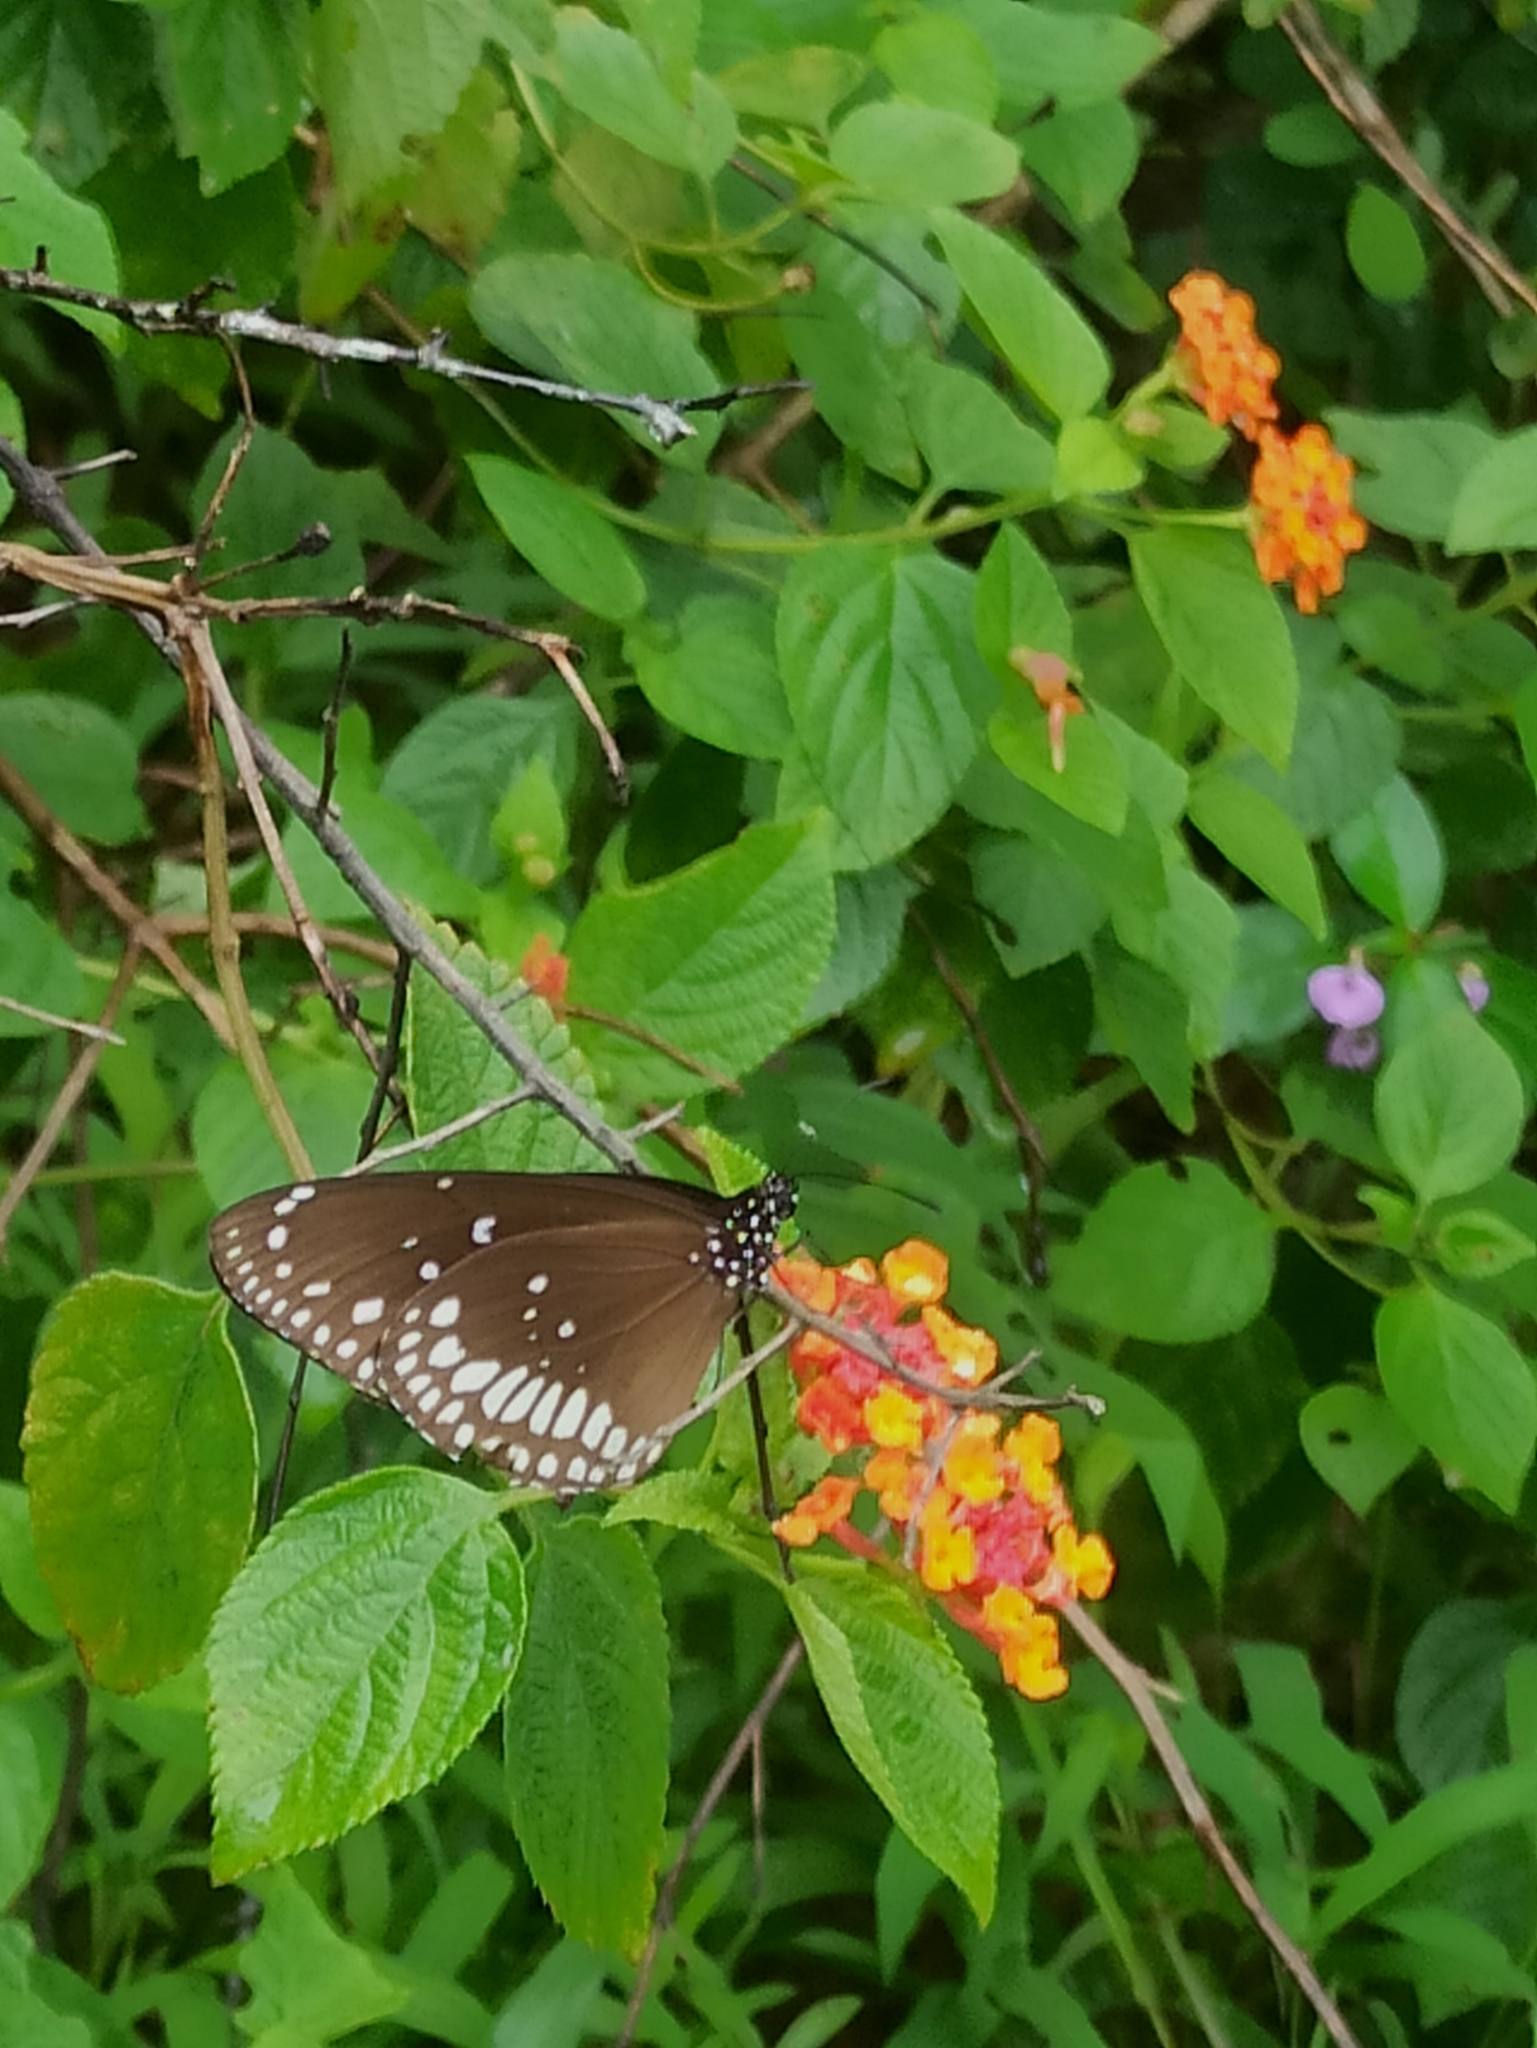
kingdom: Animalia
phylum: Arthropoda
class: Insecta
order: Lepidoptera
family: Nymphalidae
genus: Euploea
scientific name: Euploea core
